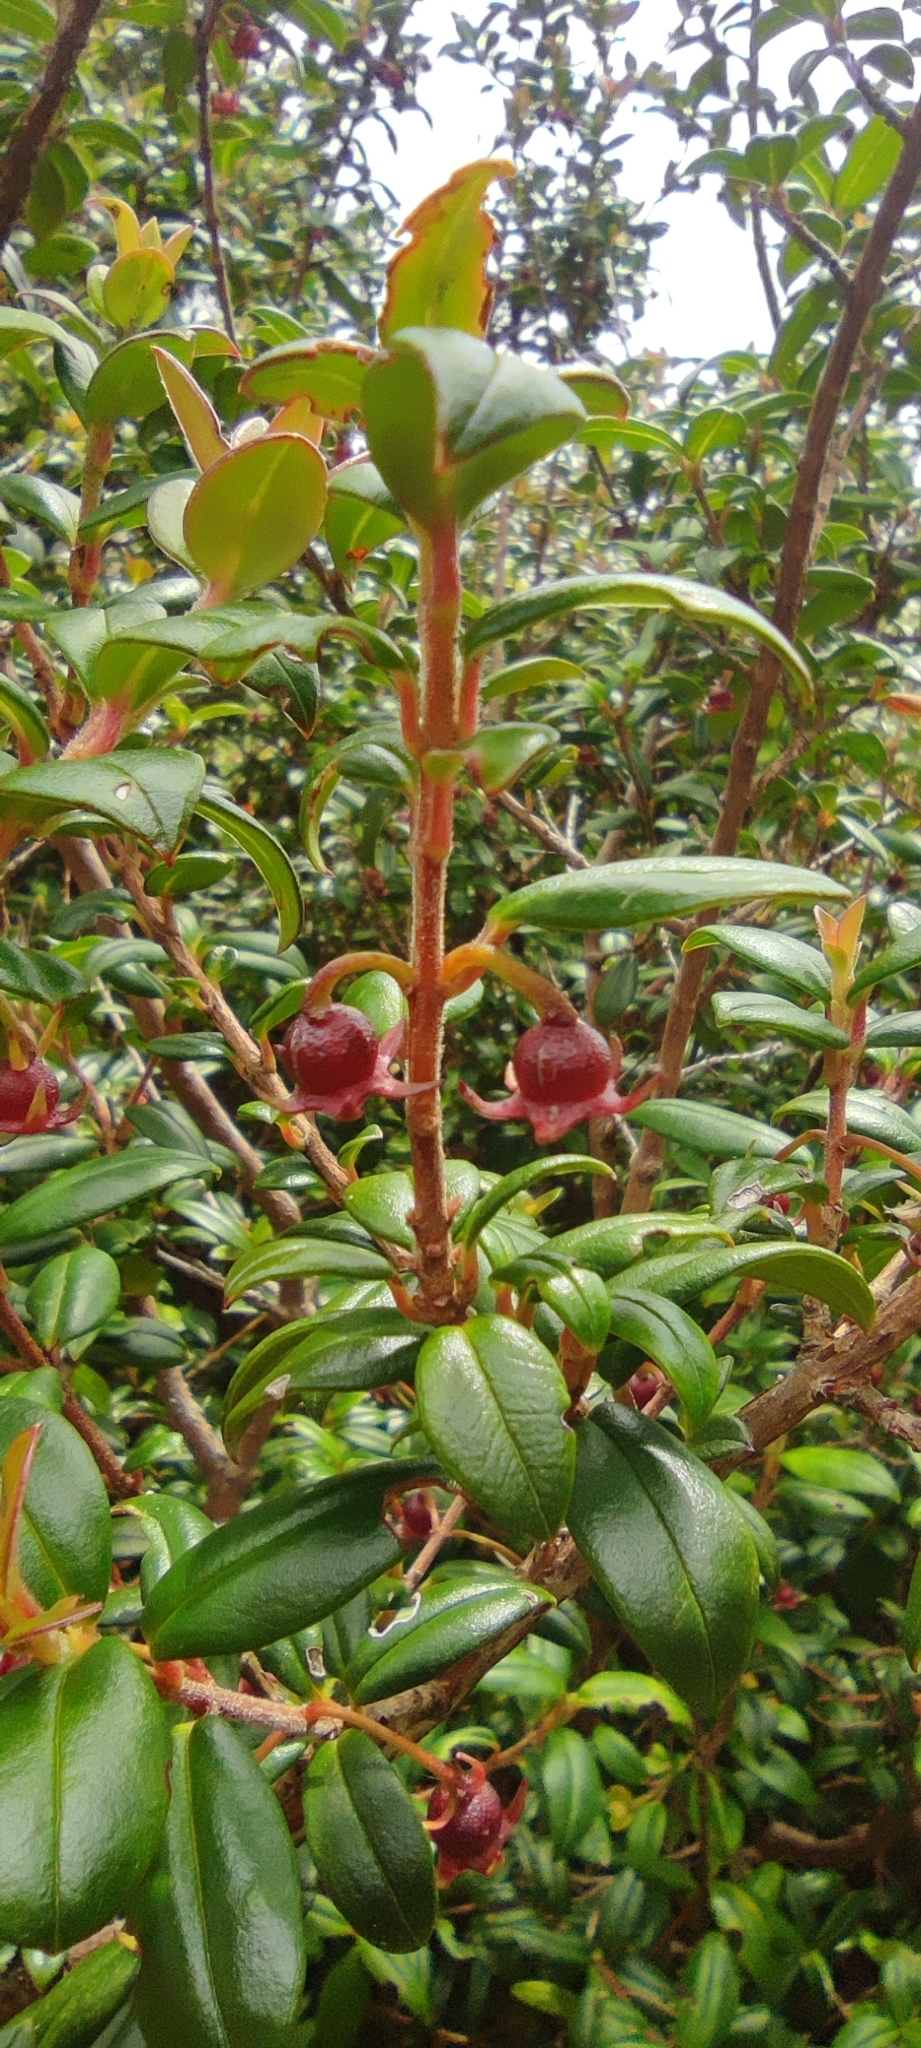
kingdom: Plantae
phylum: Tracheophyta
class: Magnoliopsida
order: Myrtales
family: Myrtaceae
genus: Ugni
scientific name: Ugni molinae
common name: Chilean-guava
